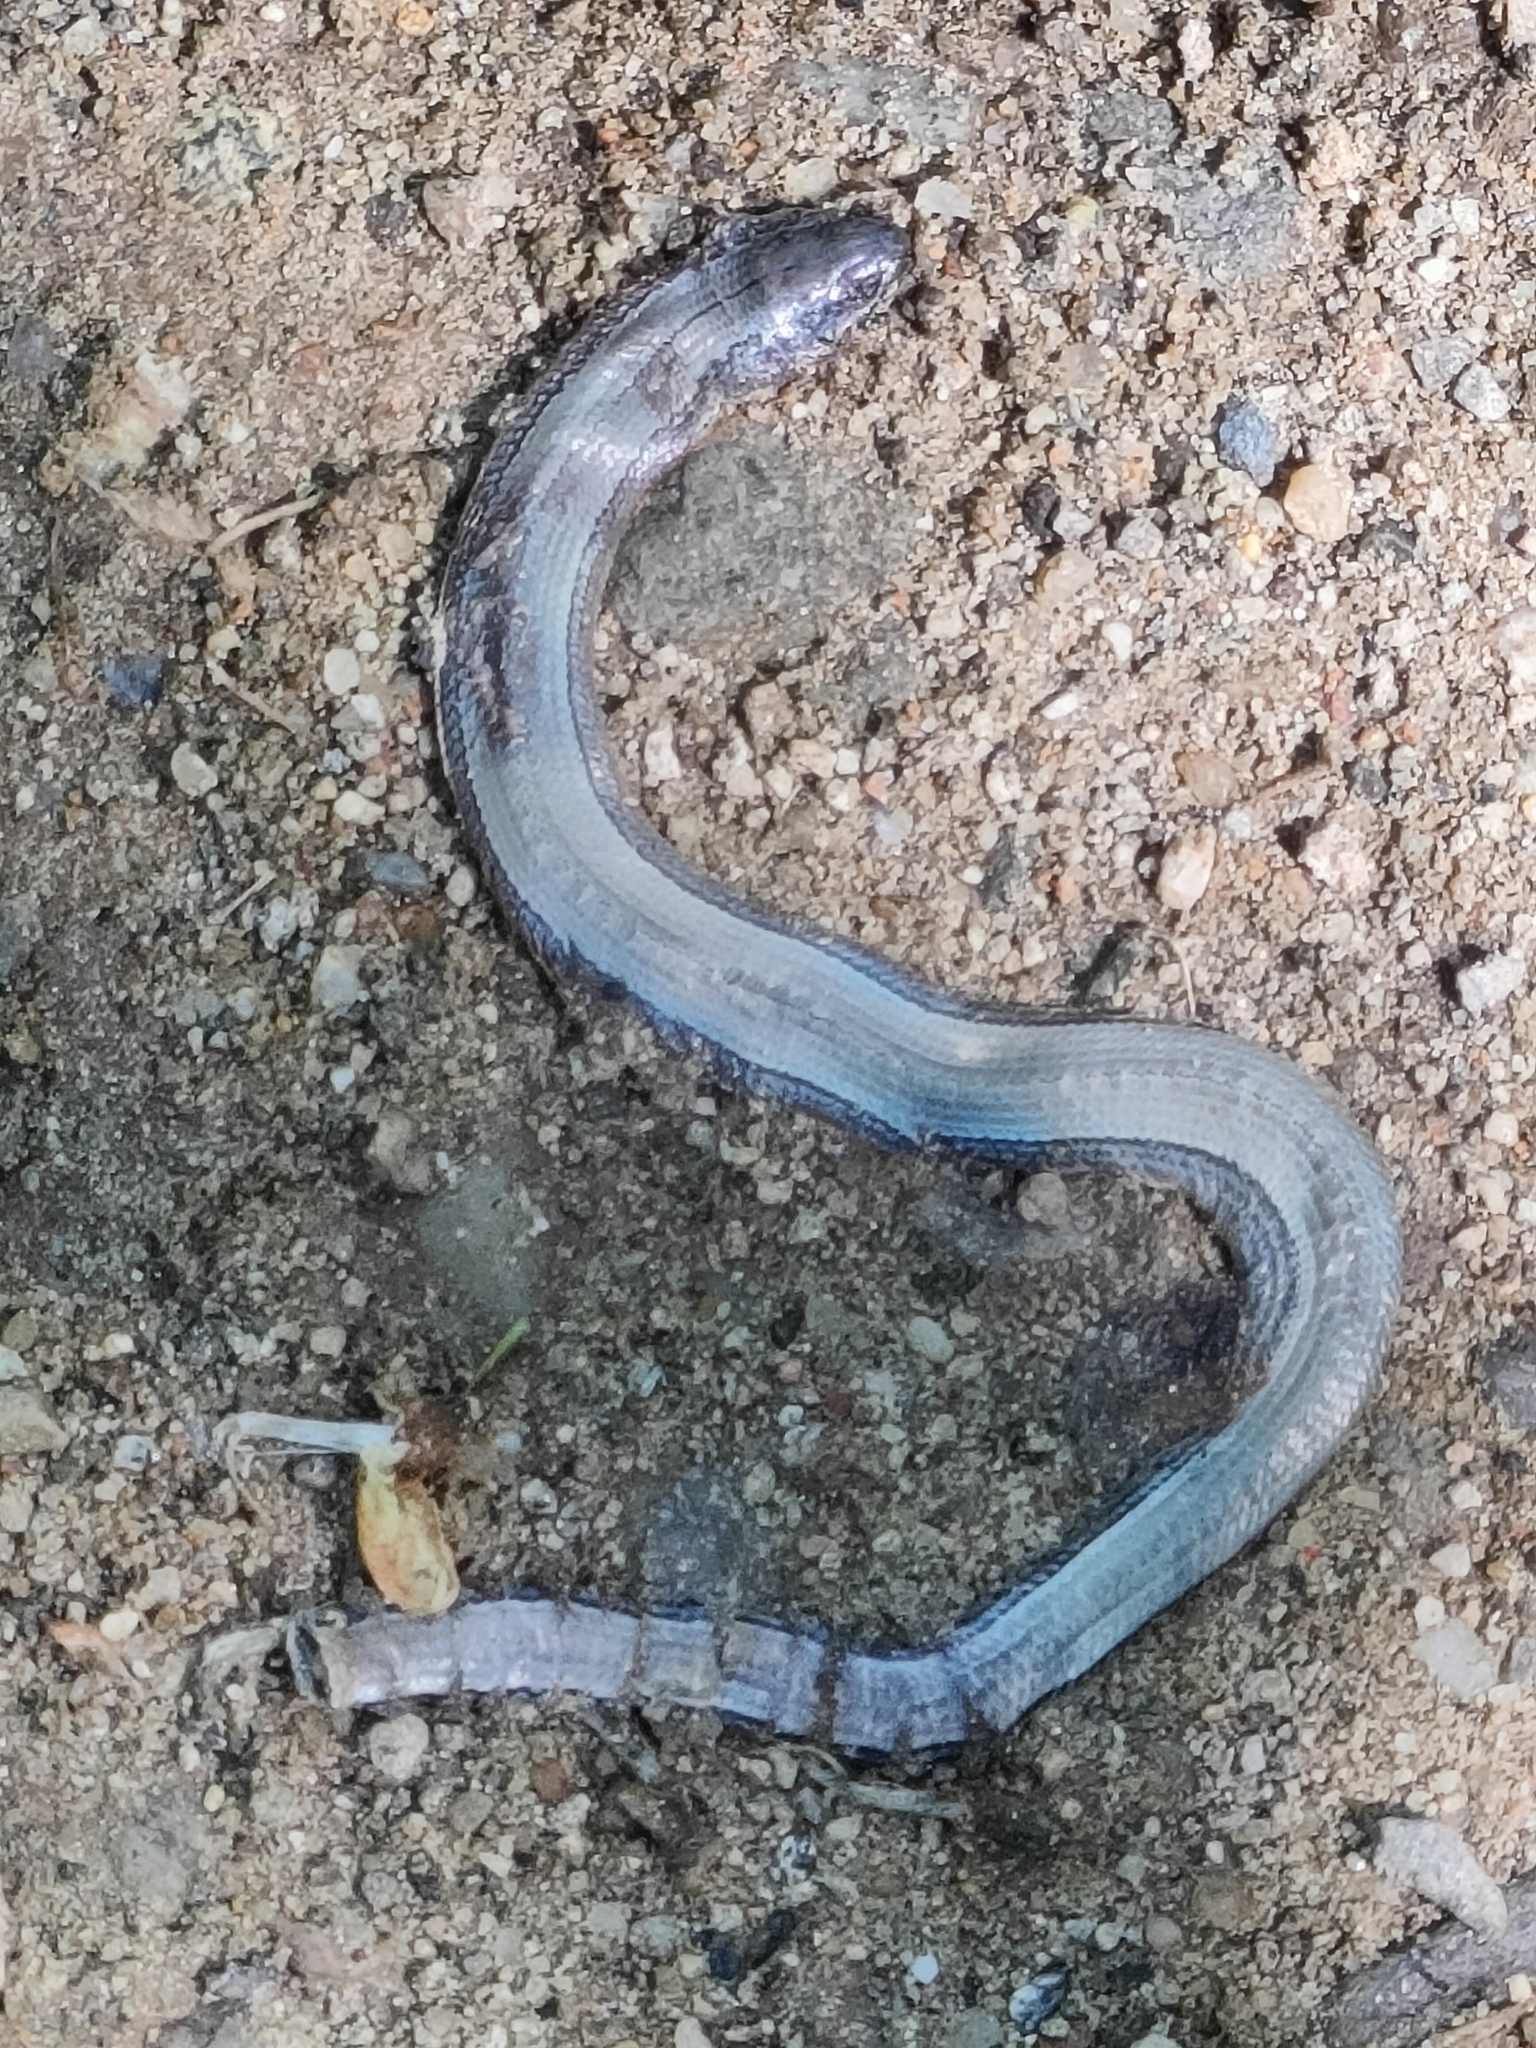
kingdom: Animalia
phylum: Chordata
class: Squamata
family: Anguidae
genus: Anguis
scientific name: Anguis veronensis
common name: Italian slow worm
